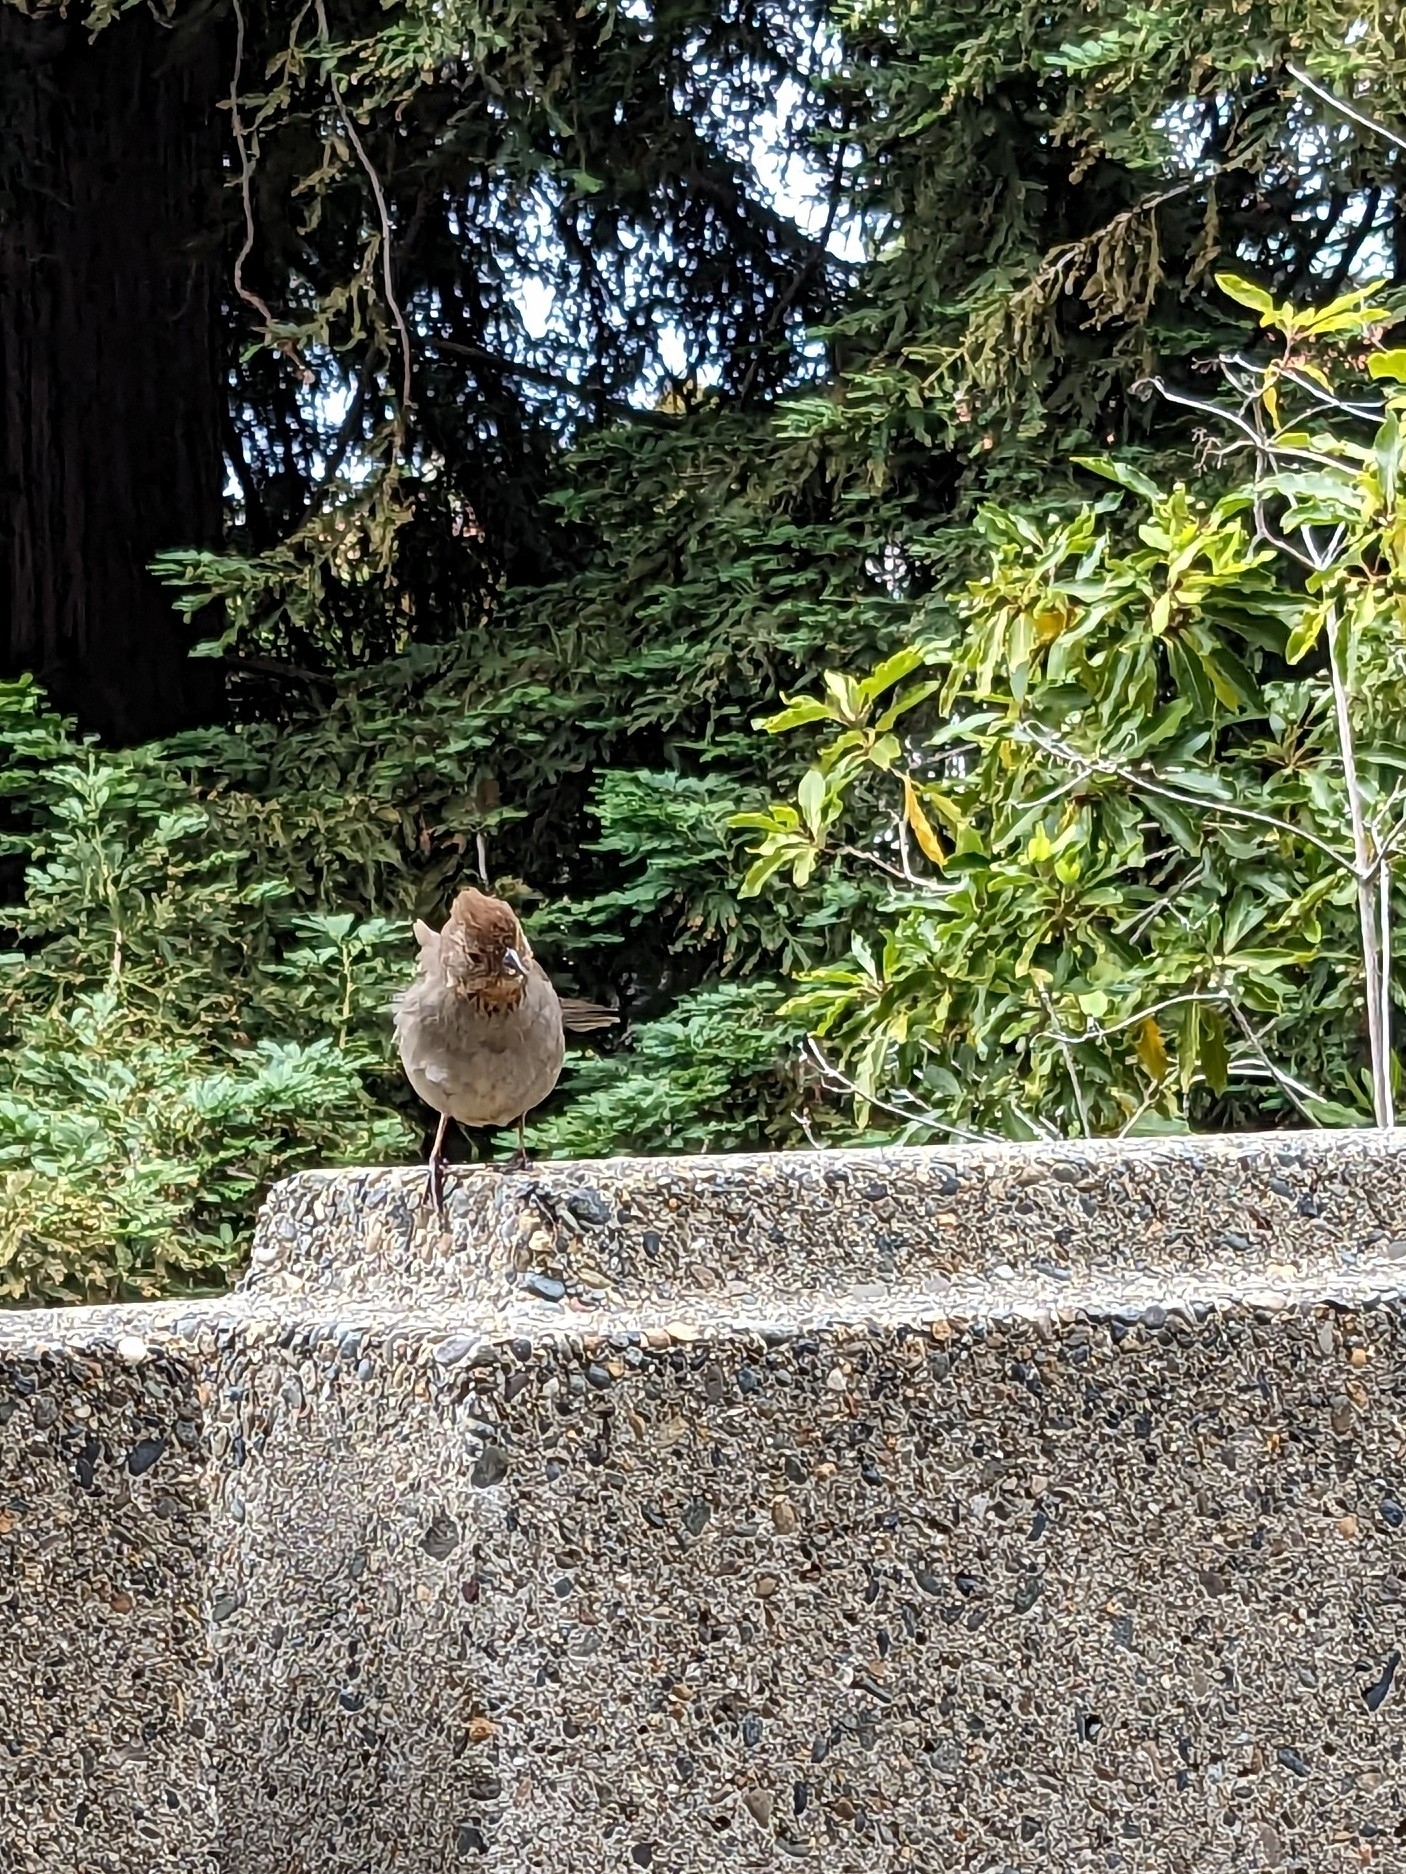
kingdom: Animalia
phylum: Chordata
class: Aves
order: Passeriformes
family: Passerellidae
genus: Melozone
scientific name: Melozone crissalis
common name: California towhee
